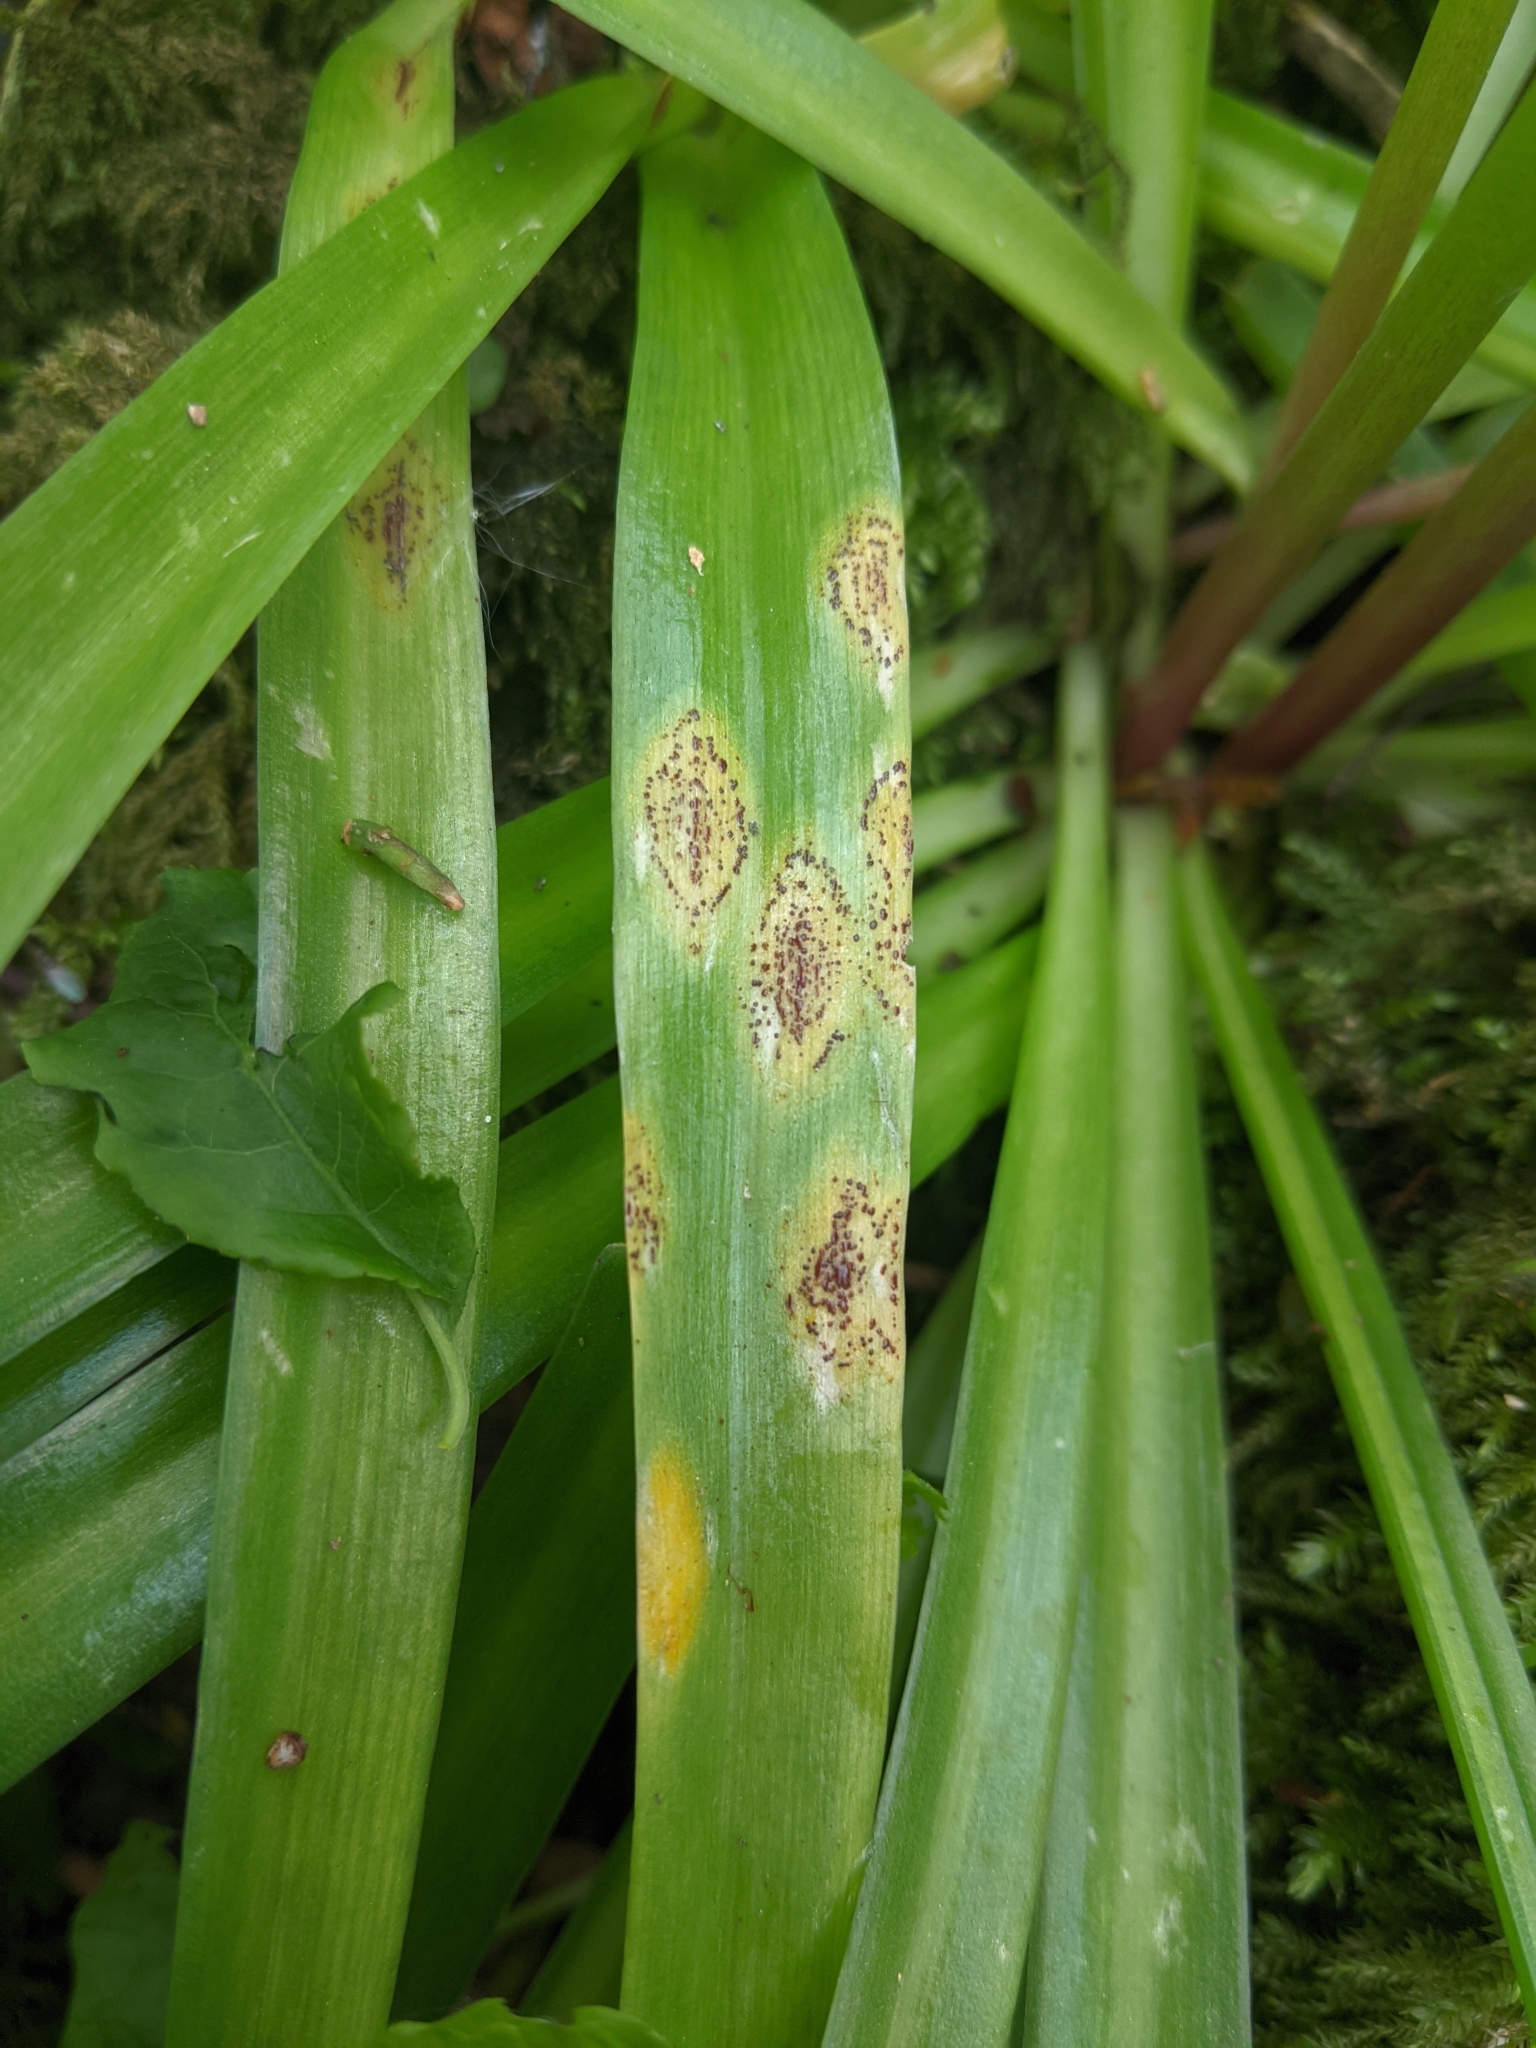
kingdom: Fungi
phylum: Basidiomycota
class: Pucciniomycetes
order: Pucciniales
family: Pucciniaceae
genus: Uromyces
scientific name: Uromyces hyacinthi
